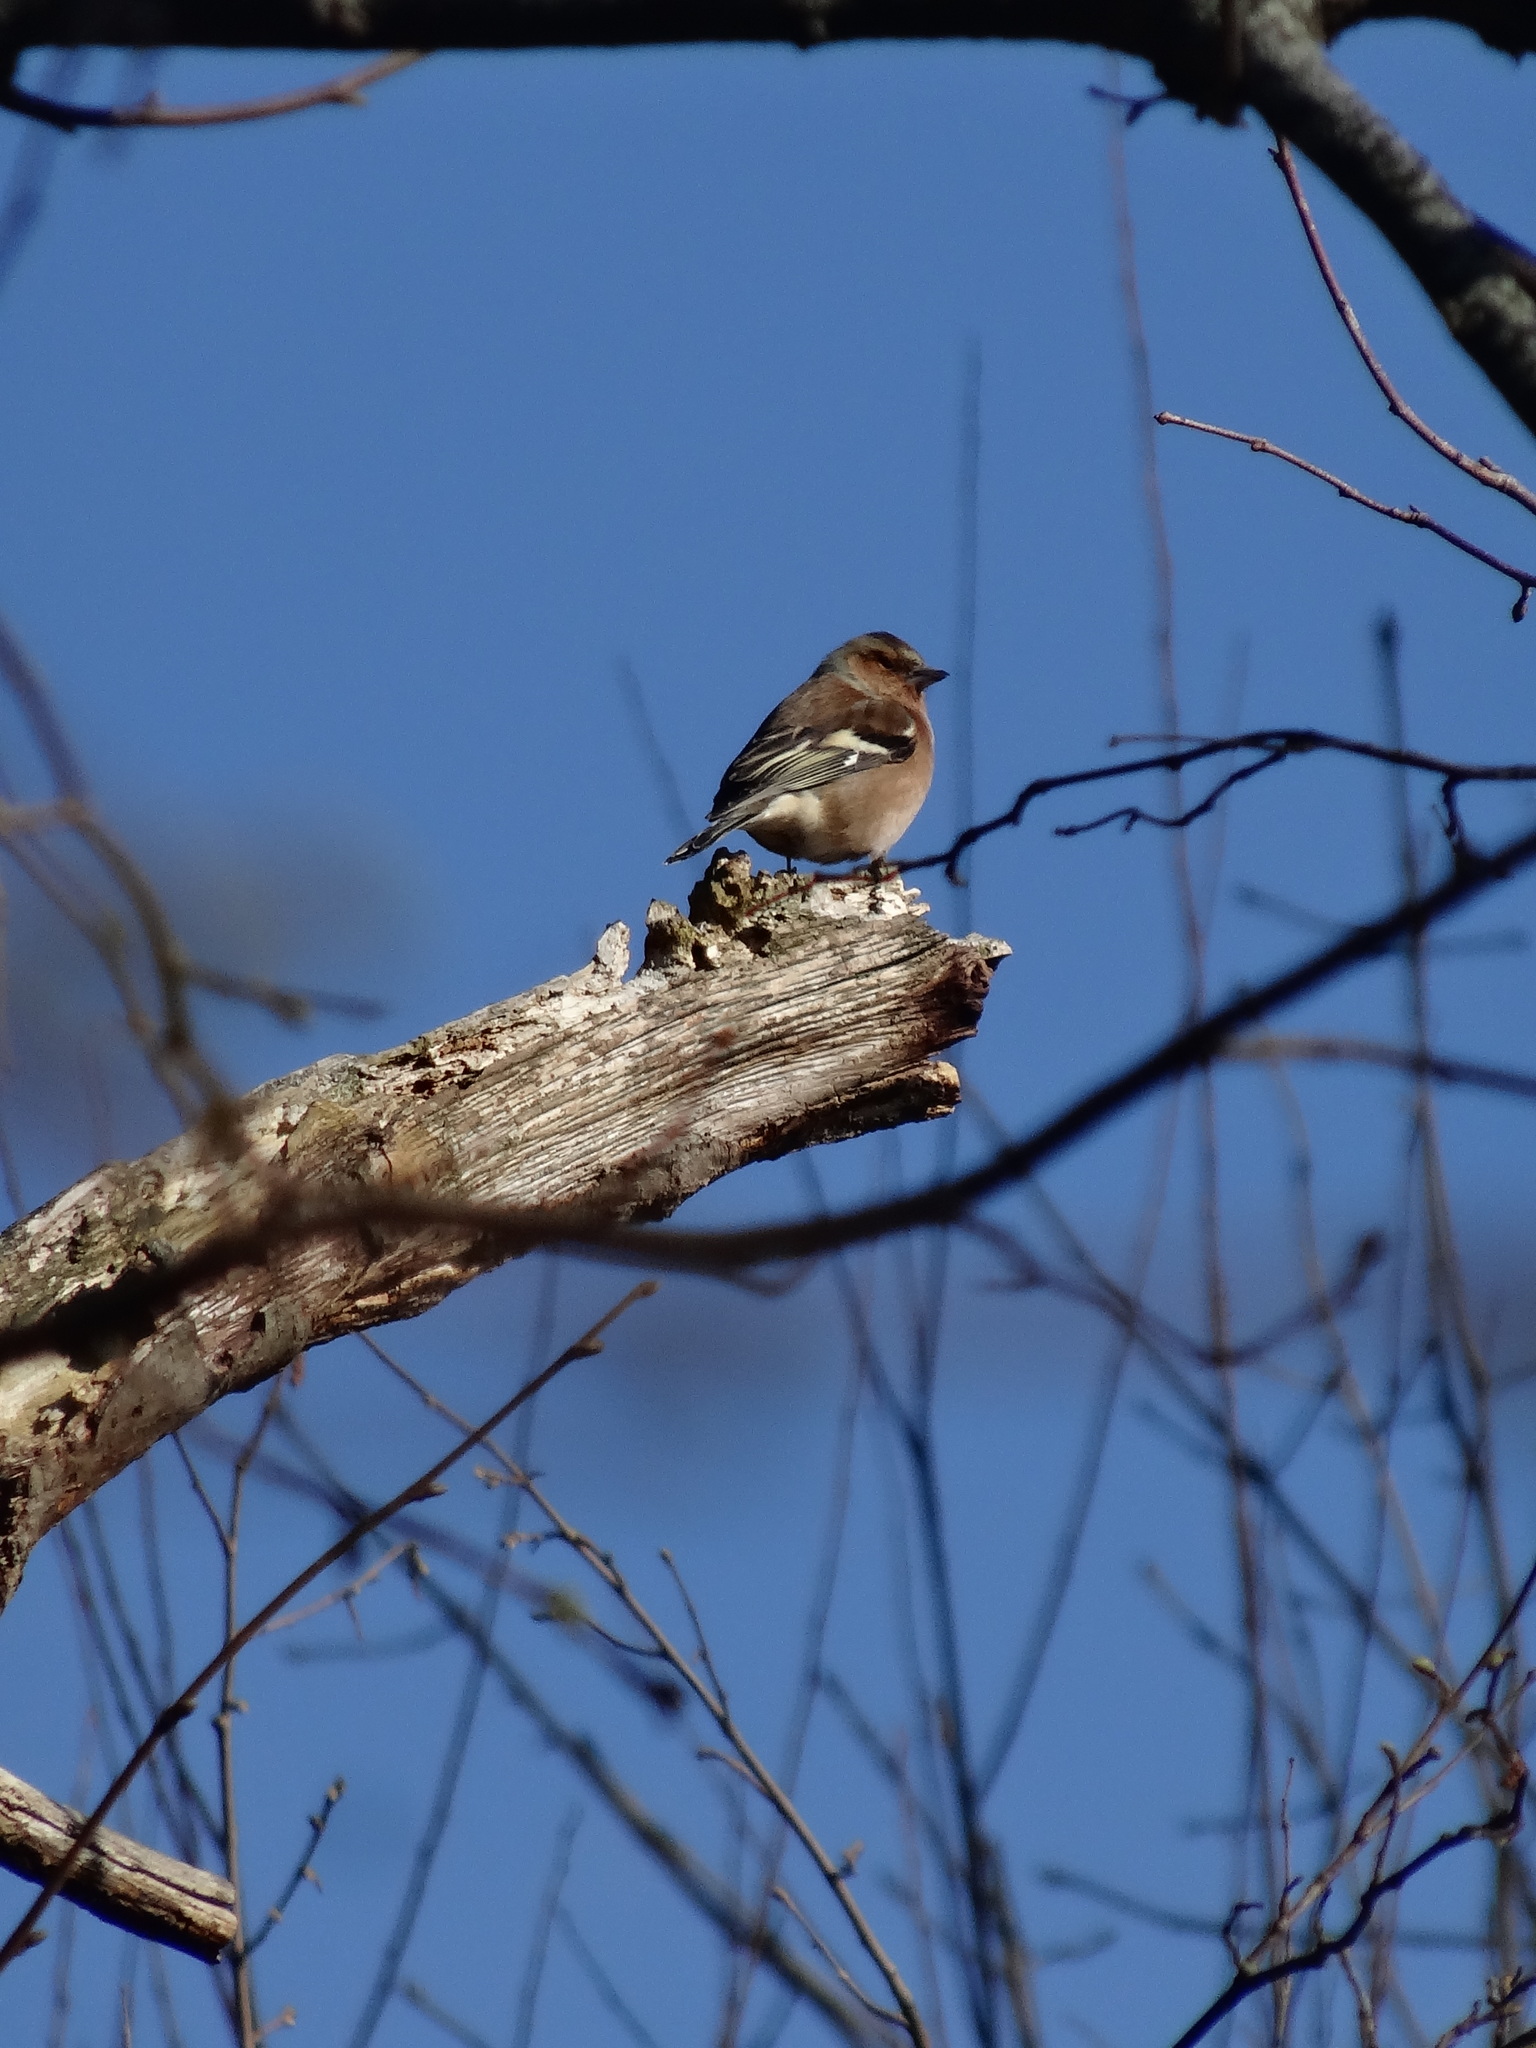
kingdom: Animalia
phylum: Chordata
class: Aves
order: Passeriformes
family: Fringillidae
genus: Fringilla
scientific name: Fringilla coelebs
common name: Common chaffinch
